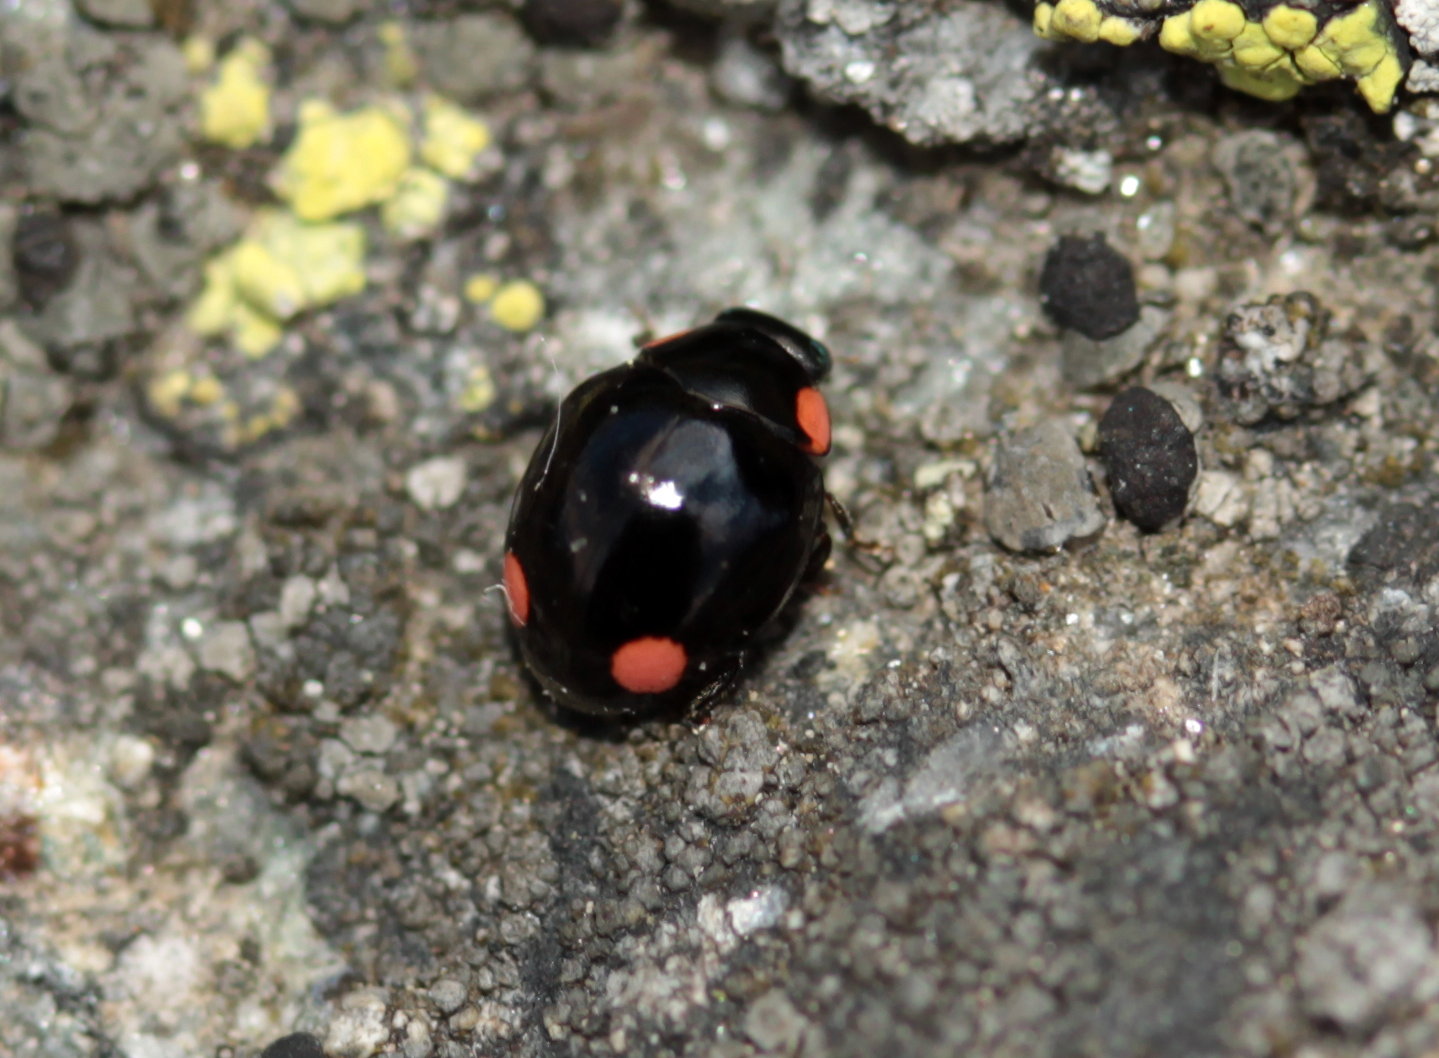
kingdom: Animalia
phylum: Arthropoda
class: Insecta
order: Coleoptera
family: Coccinellidae
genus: Hyperaspis
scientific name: Hyperaspis bigeminata
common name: Bigeminate sigil lady beetle
